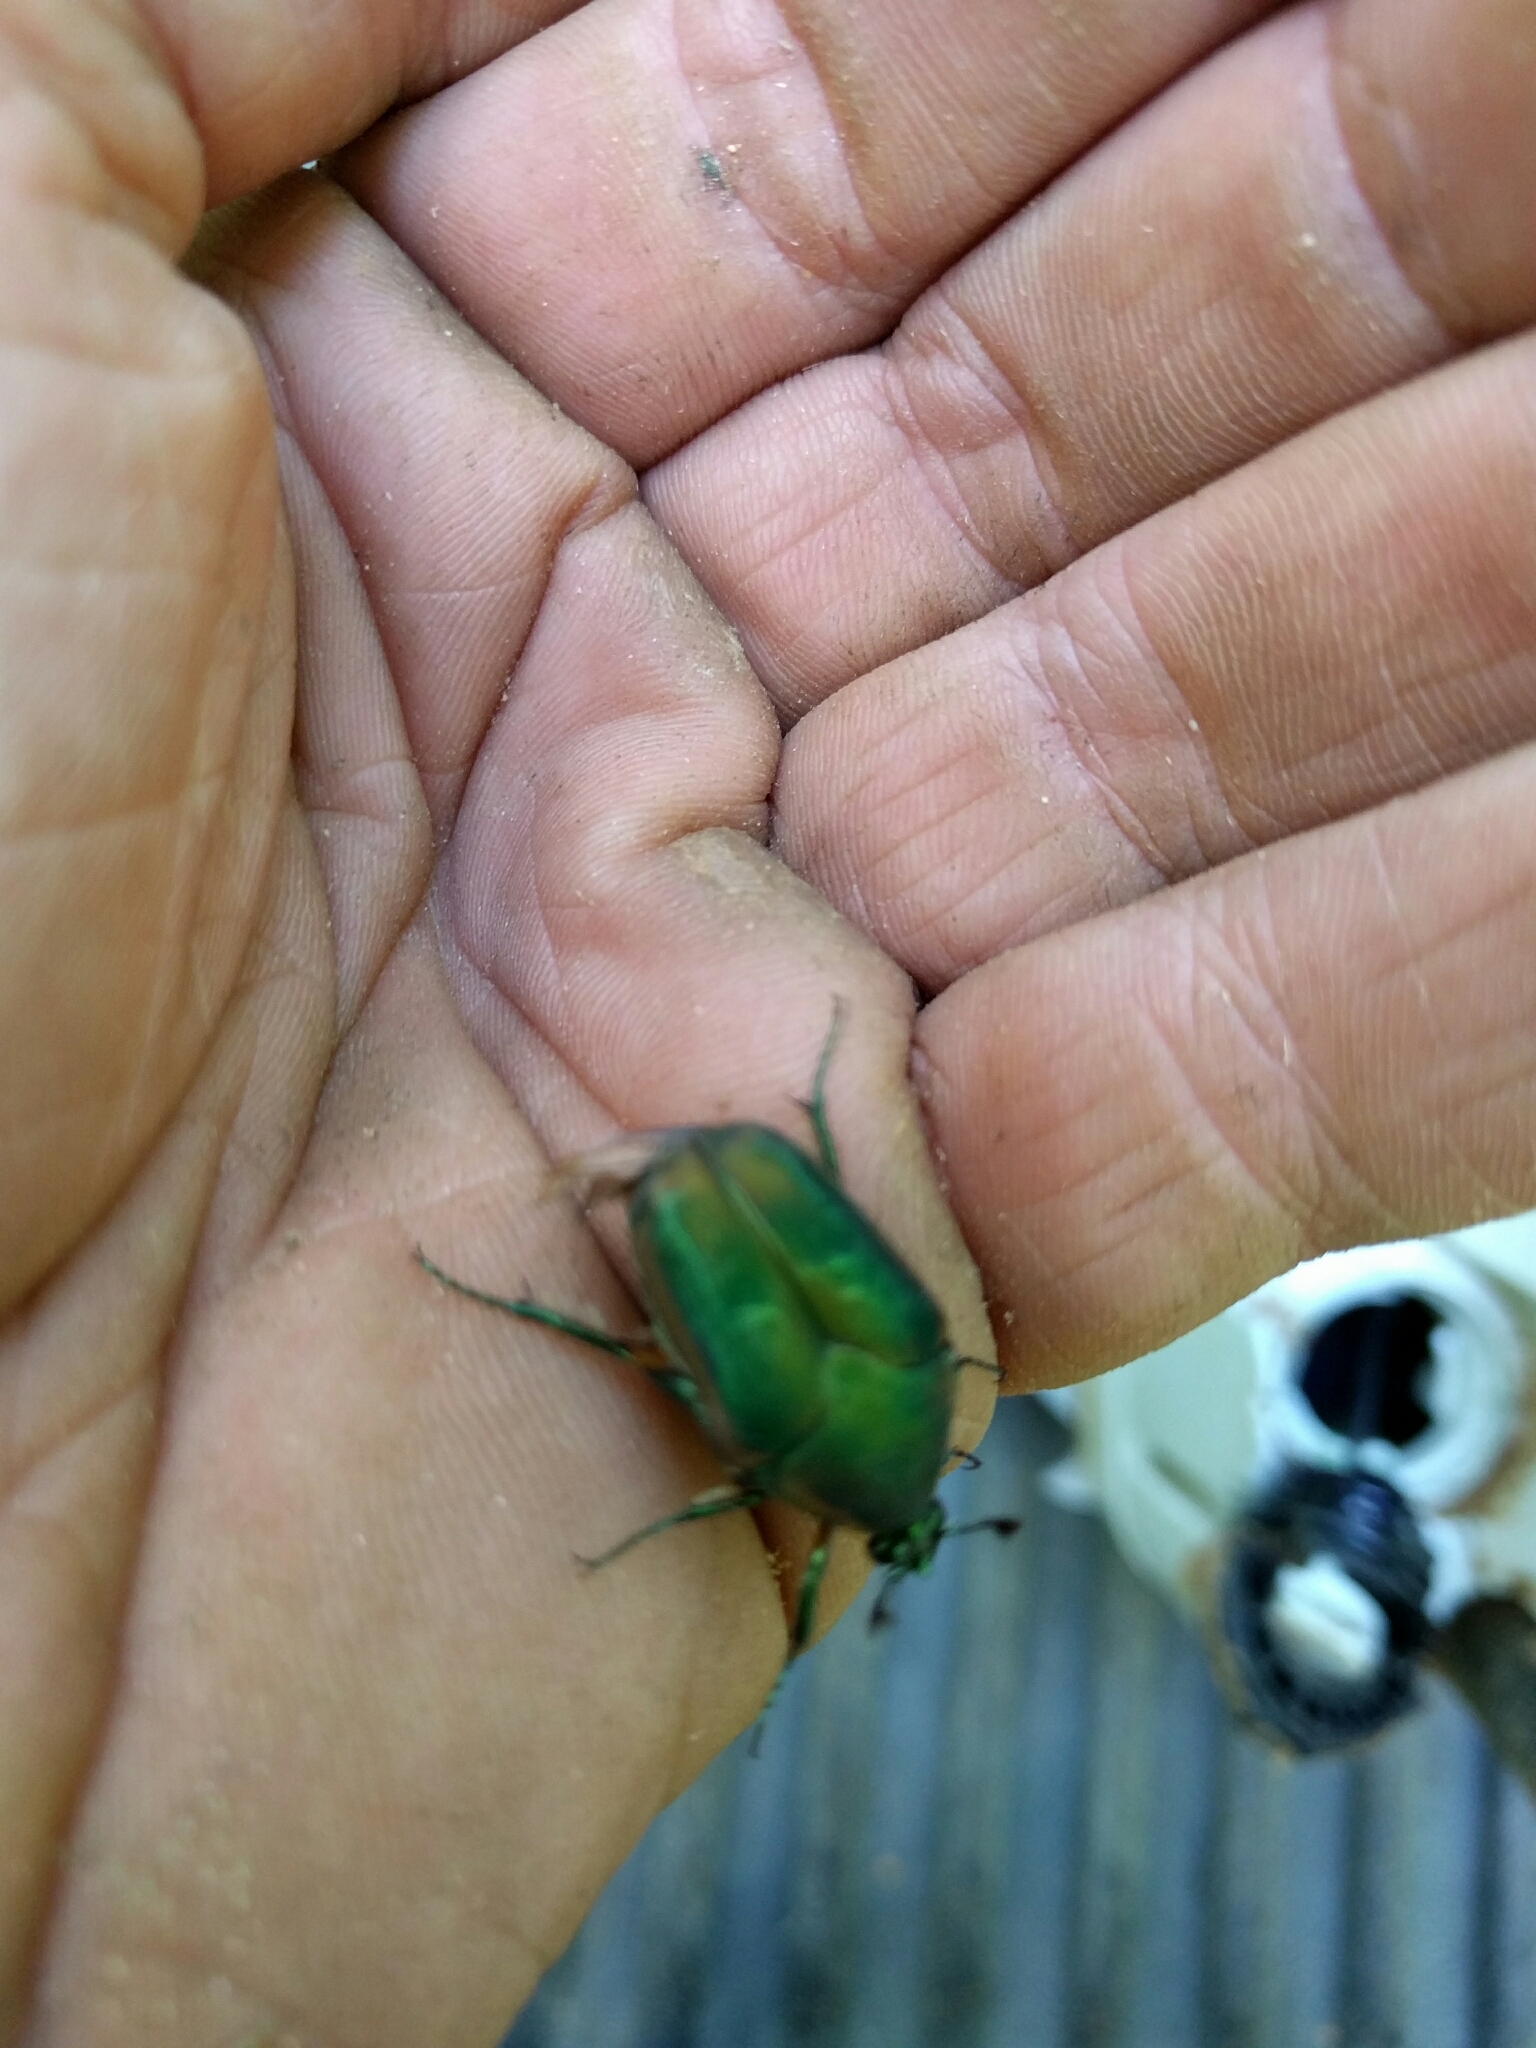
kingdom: Animalia
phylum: Arthropoda
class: Insecta
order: Coleoptera
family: Scarabaeidae
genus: Cotinis
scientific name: Cotinis nitida
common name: Common green june beetle
